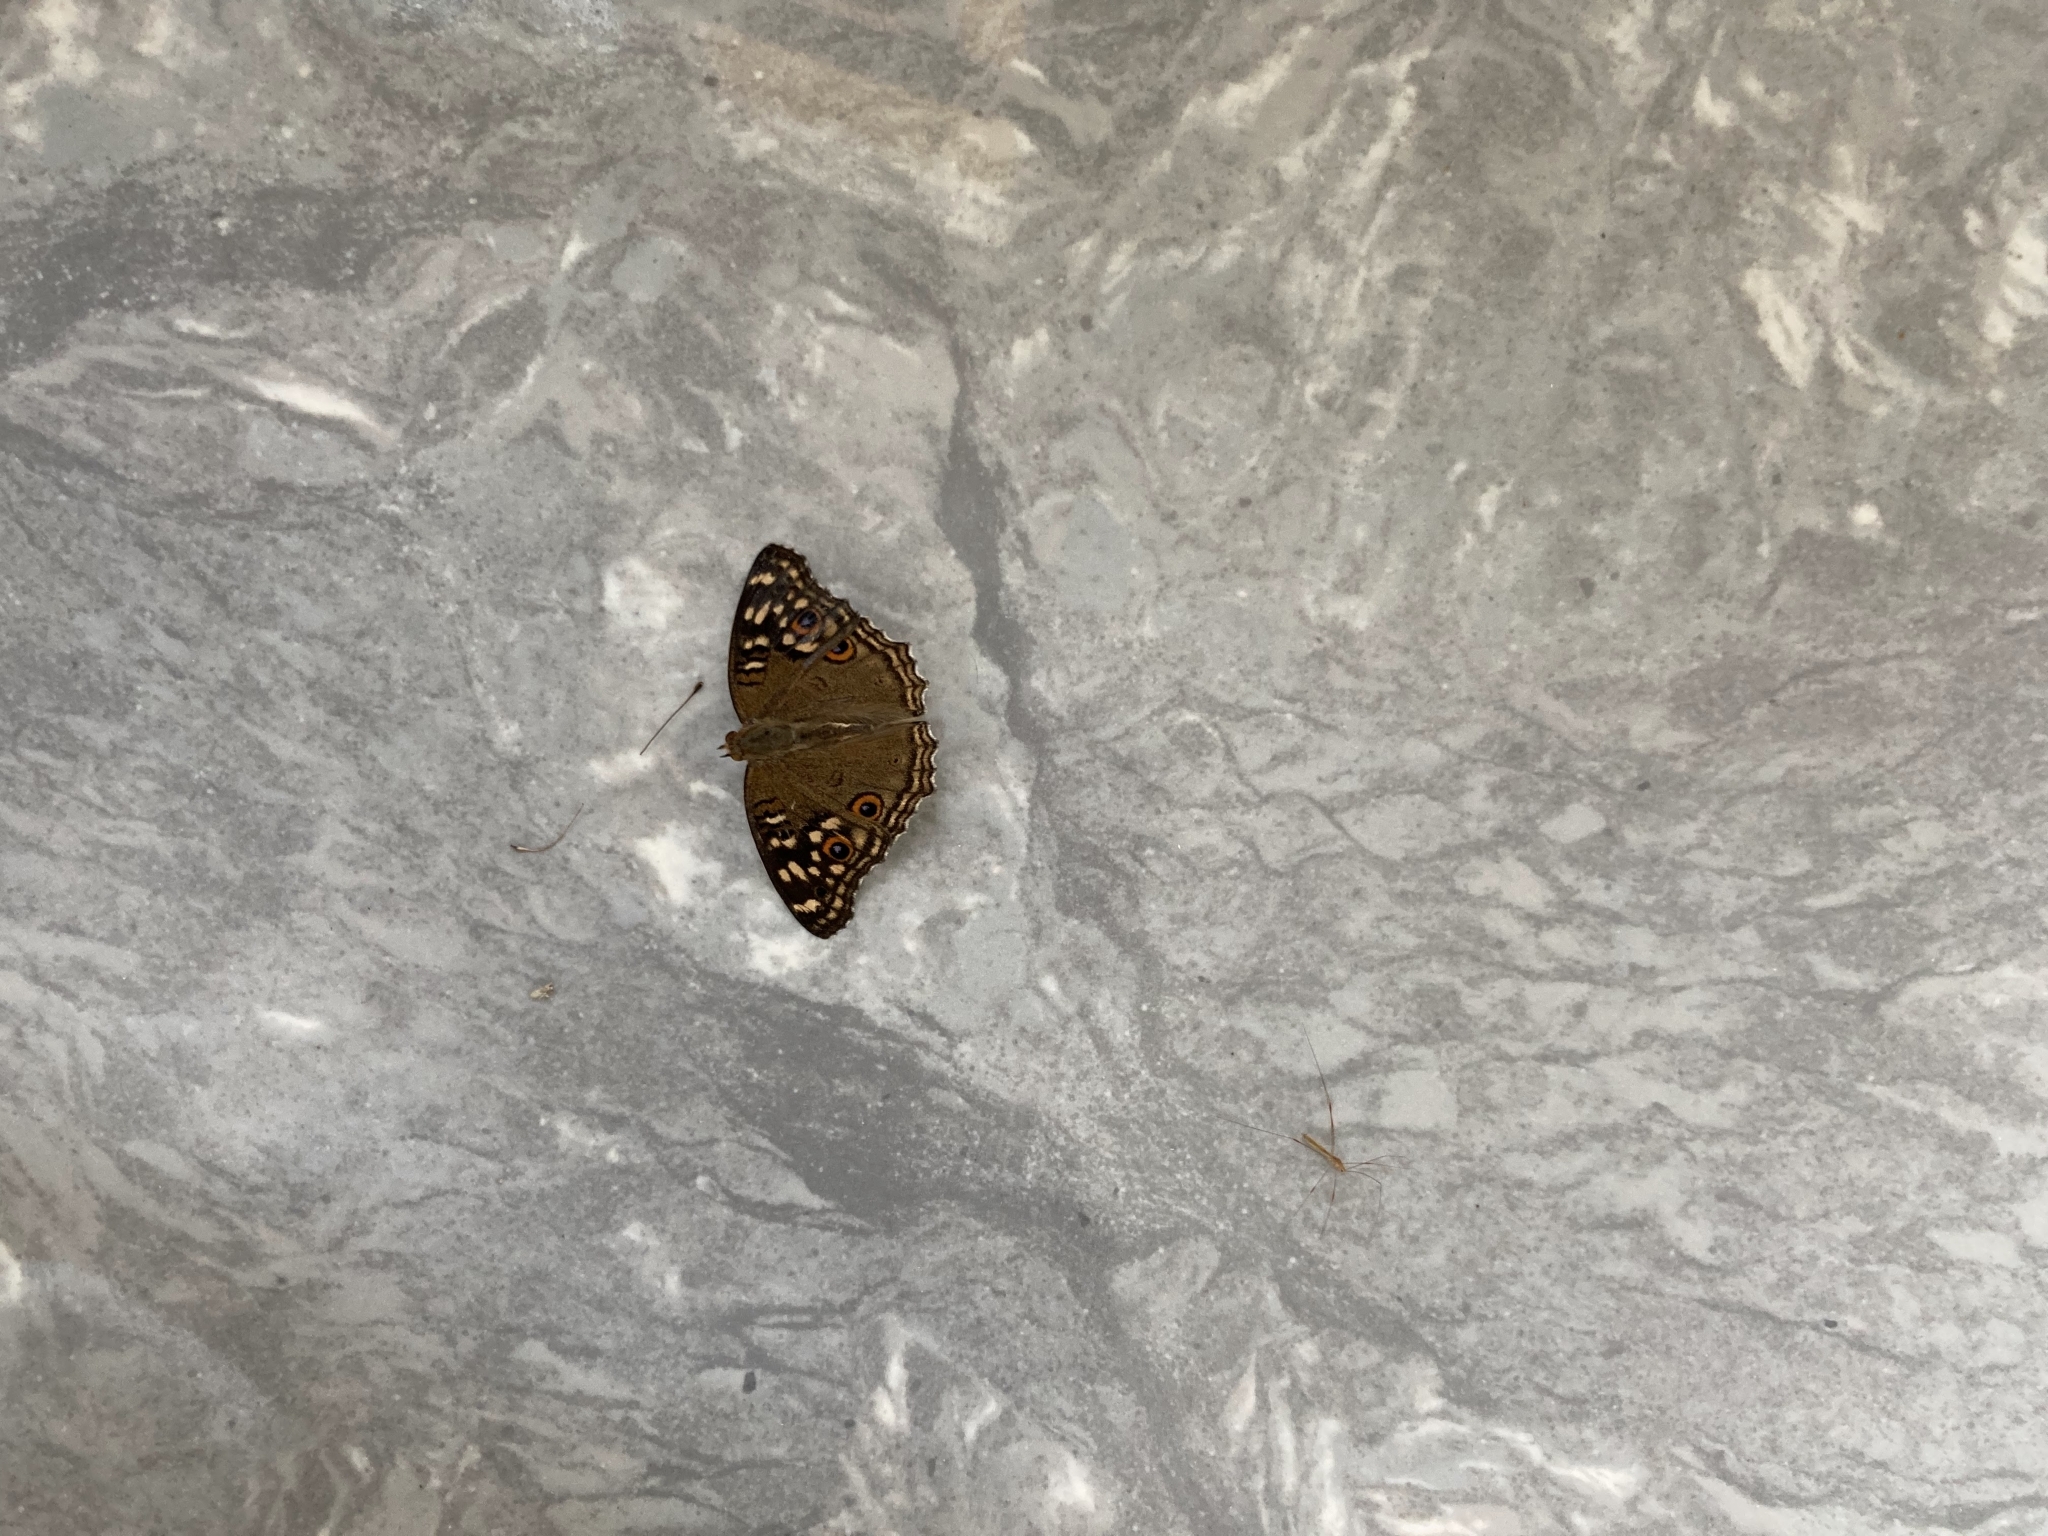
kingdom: Animalia
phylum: Arthropoda
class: Insecta
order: Lepidoptera
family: Nymphalidae
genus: Junonia
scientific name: Junonia lemonias
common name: Lemon pansy
